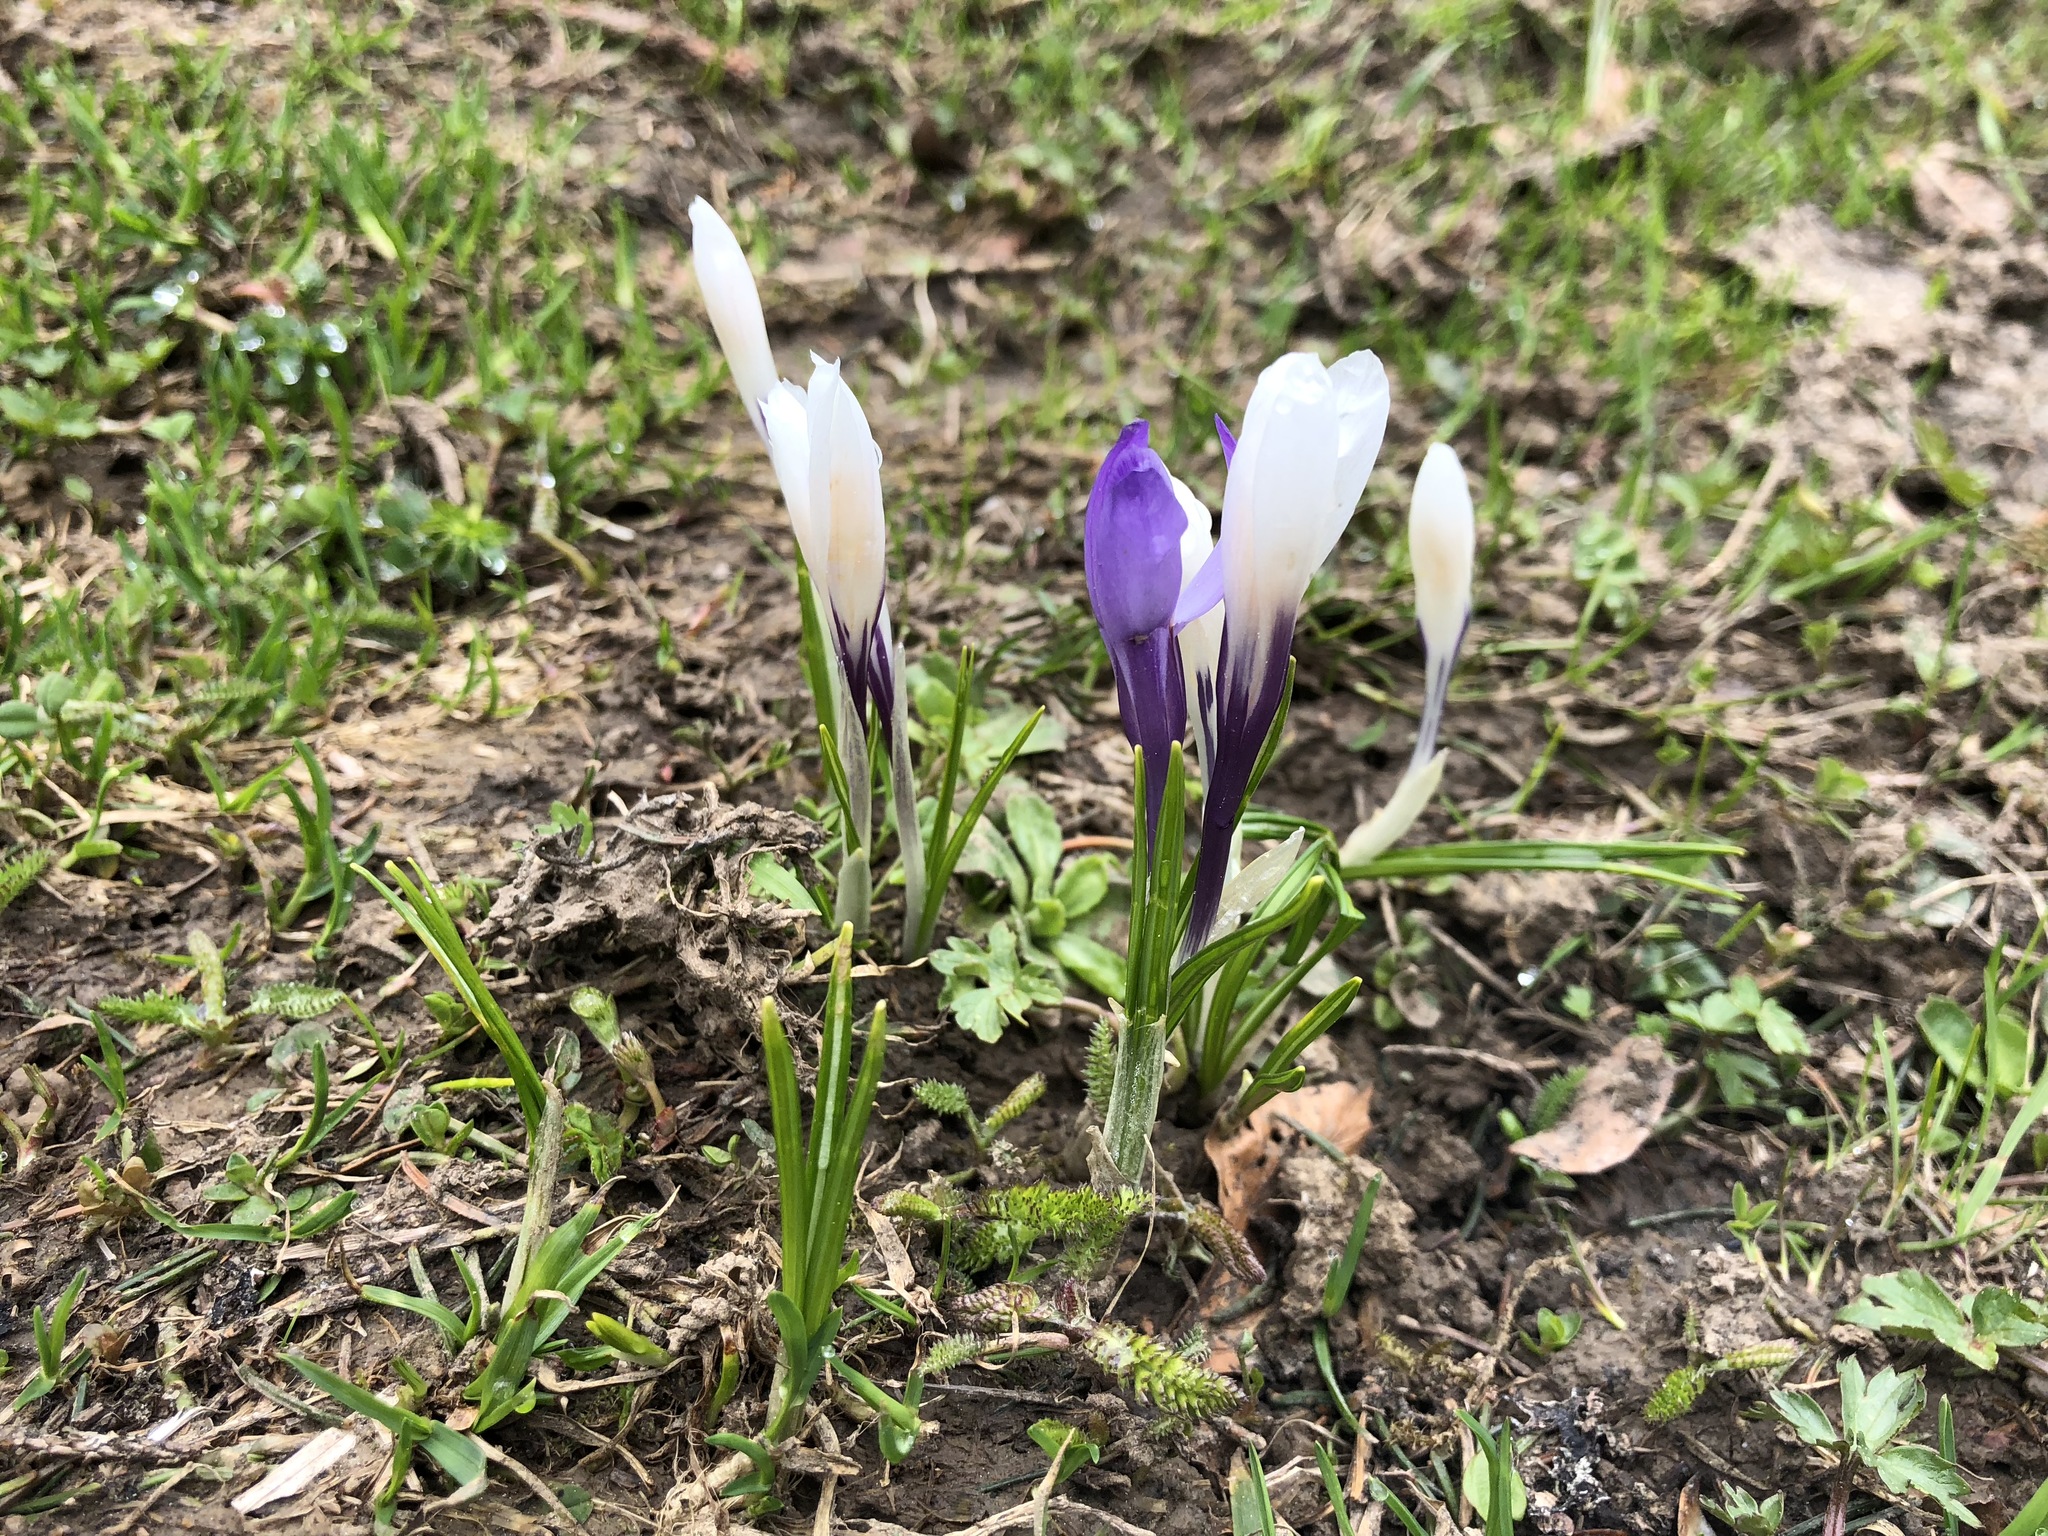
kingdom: Plantae
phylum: Tracheophyta
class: Liliopsida
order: Asparagales
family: Iridaceae
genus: Crocus
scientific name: Crocus vernus
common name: Spring crocus
